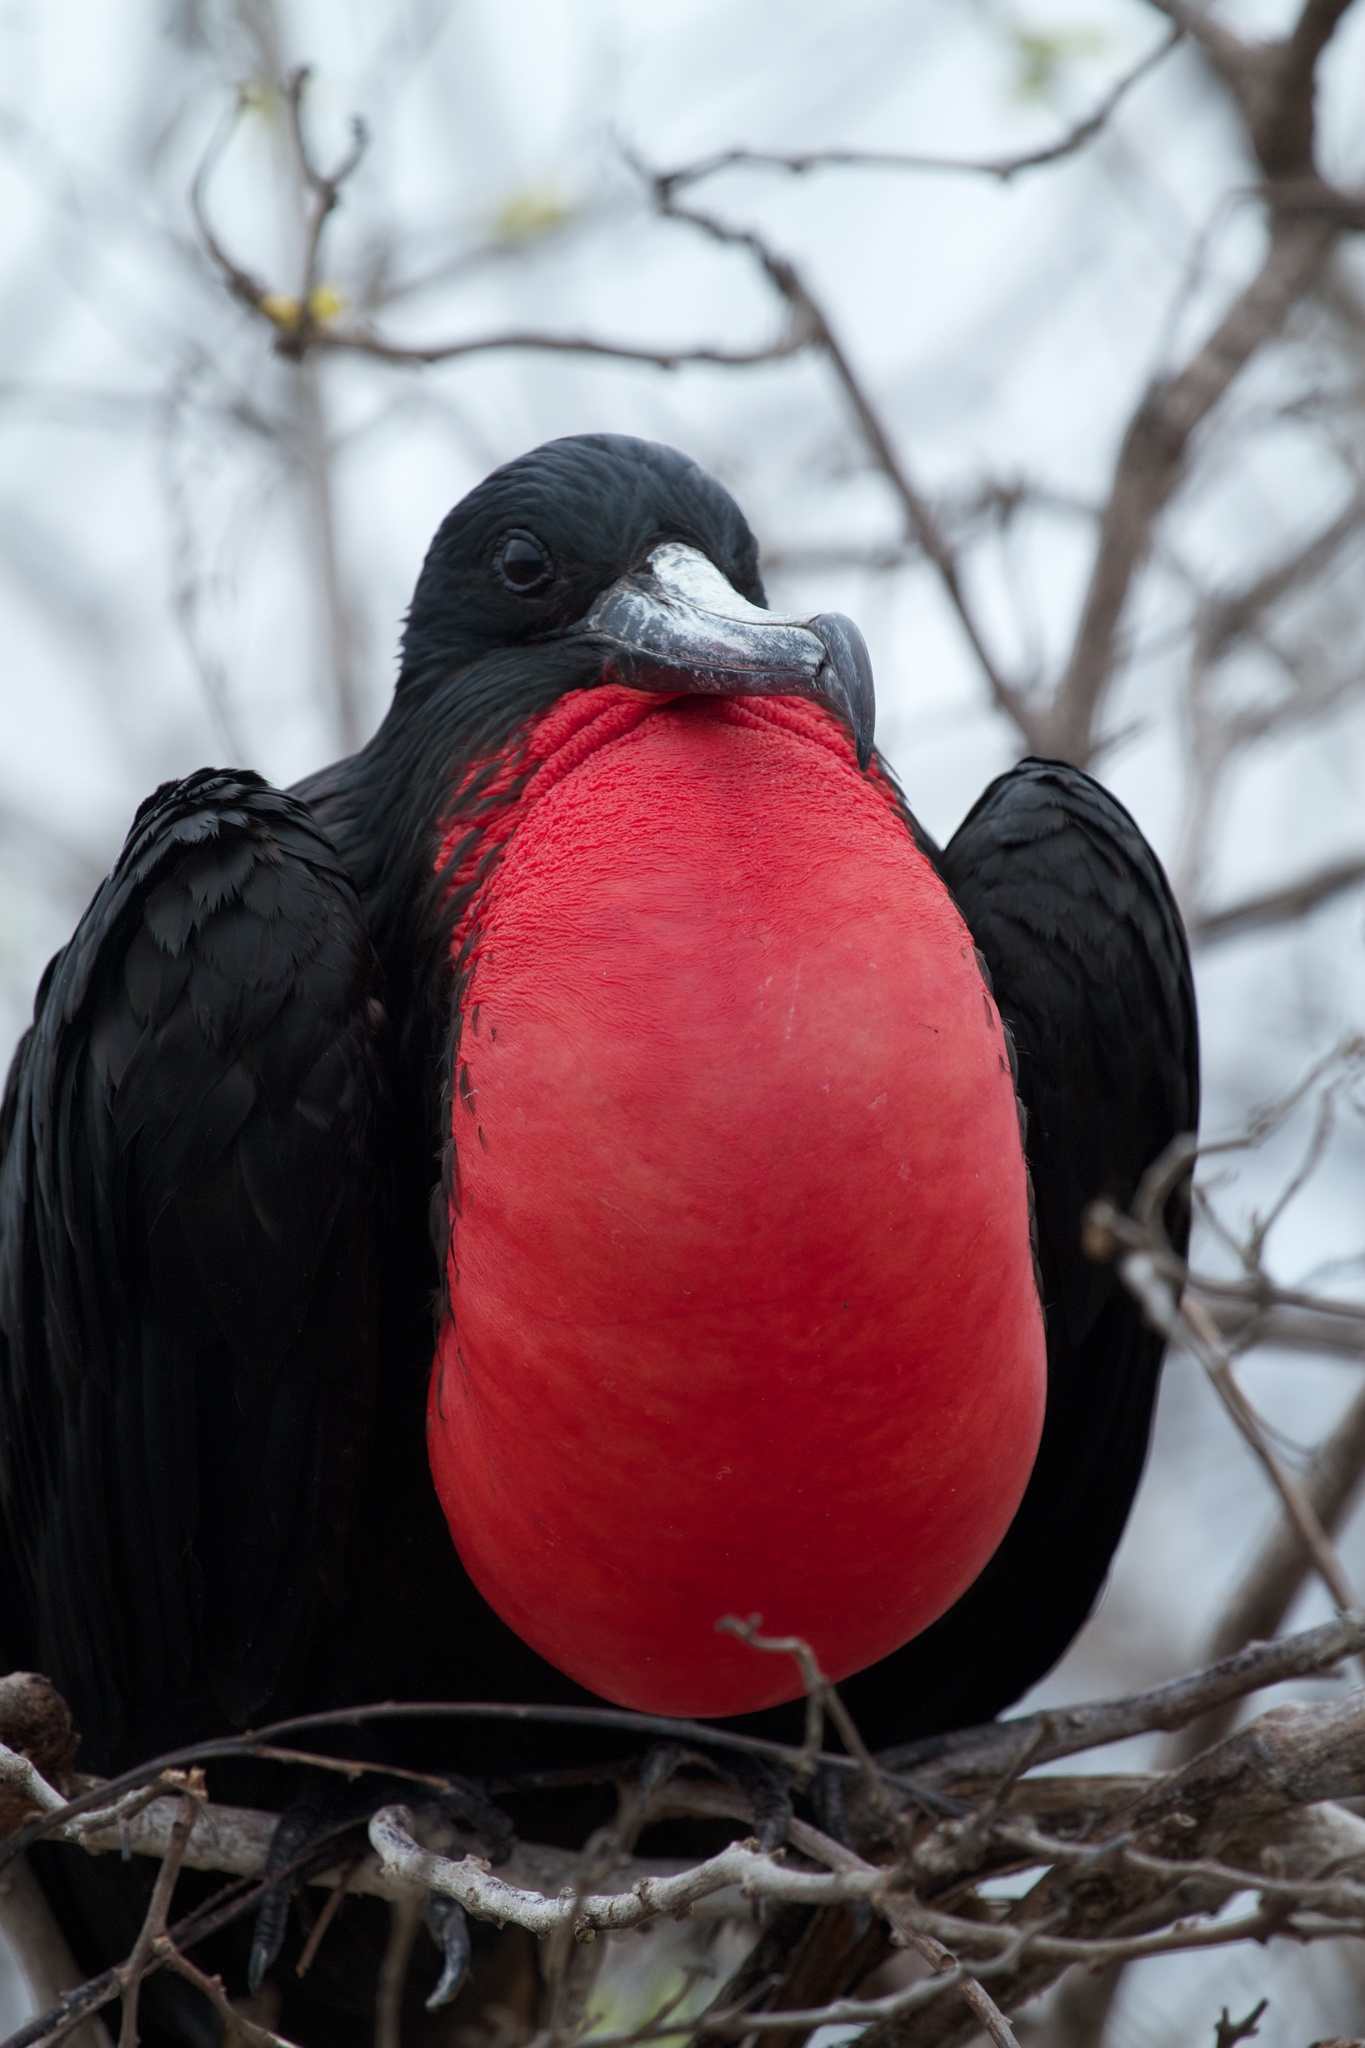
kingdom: Animalia
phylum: Chordata
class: Aves
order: Suliformes
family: Fregatidae
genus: Fregata
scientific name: Fregata magnificens
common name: Magnificent frigatebird
